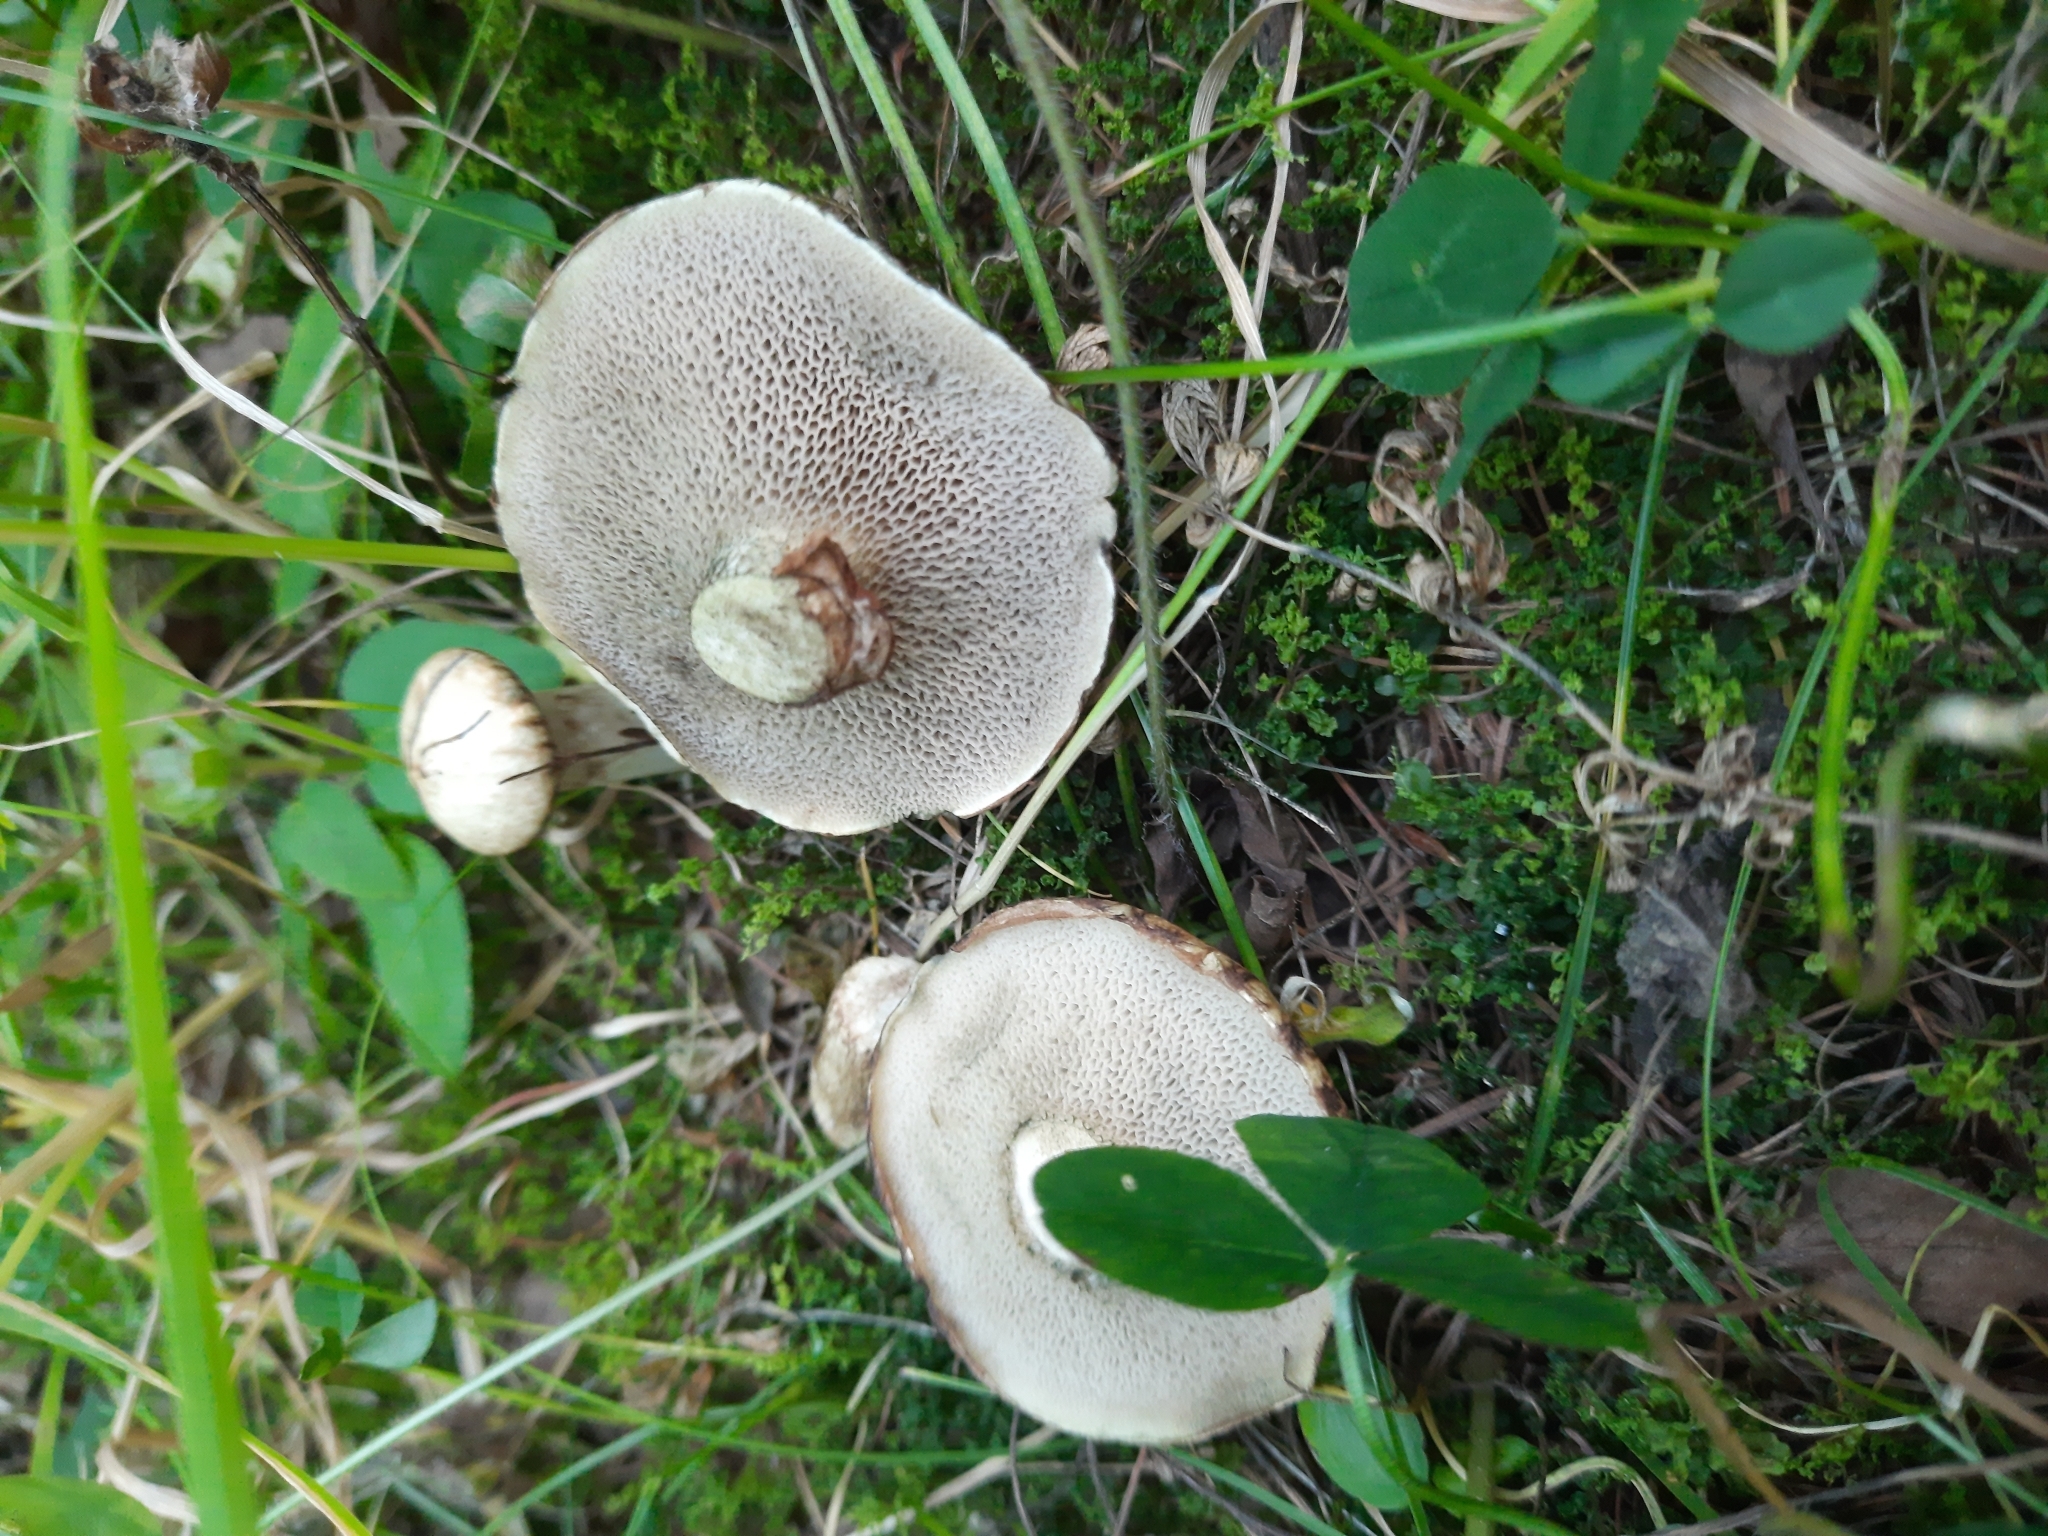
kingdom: Fungi
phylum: Basidiomycota
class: Agaricomycetes
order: Boletales
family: Suillaceae
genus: Suillus
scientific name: Suillus viscidus
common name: Sticky bolete
